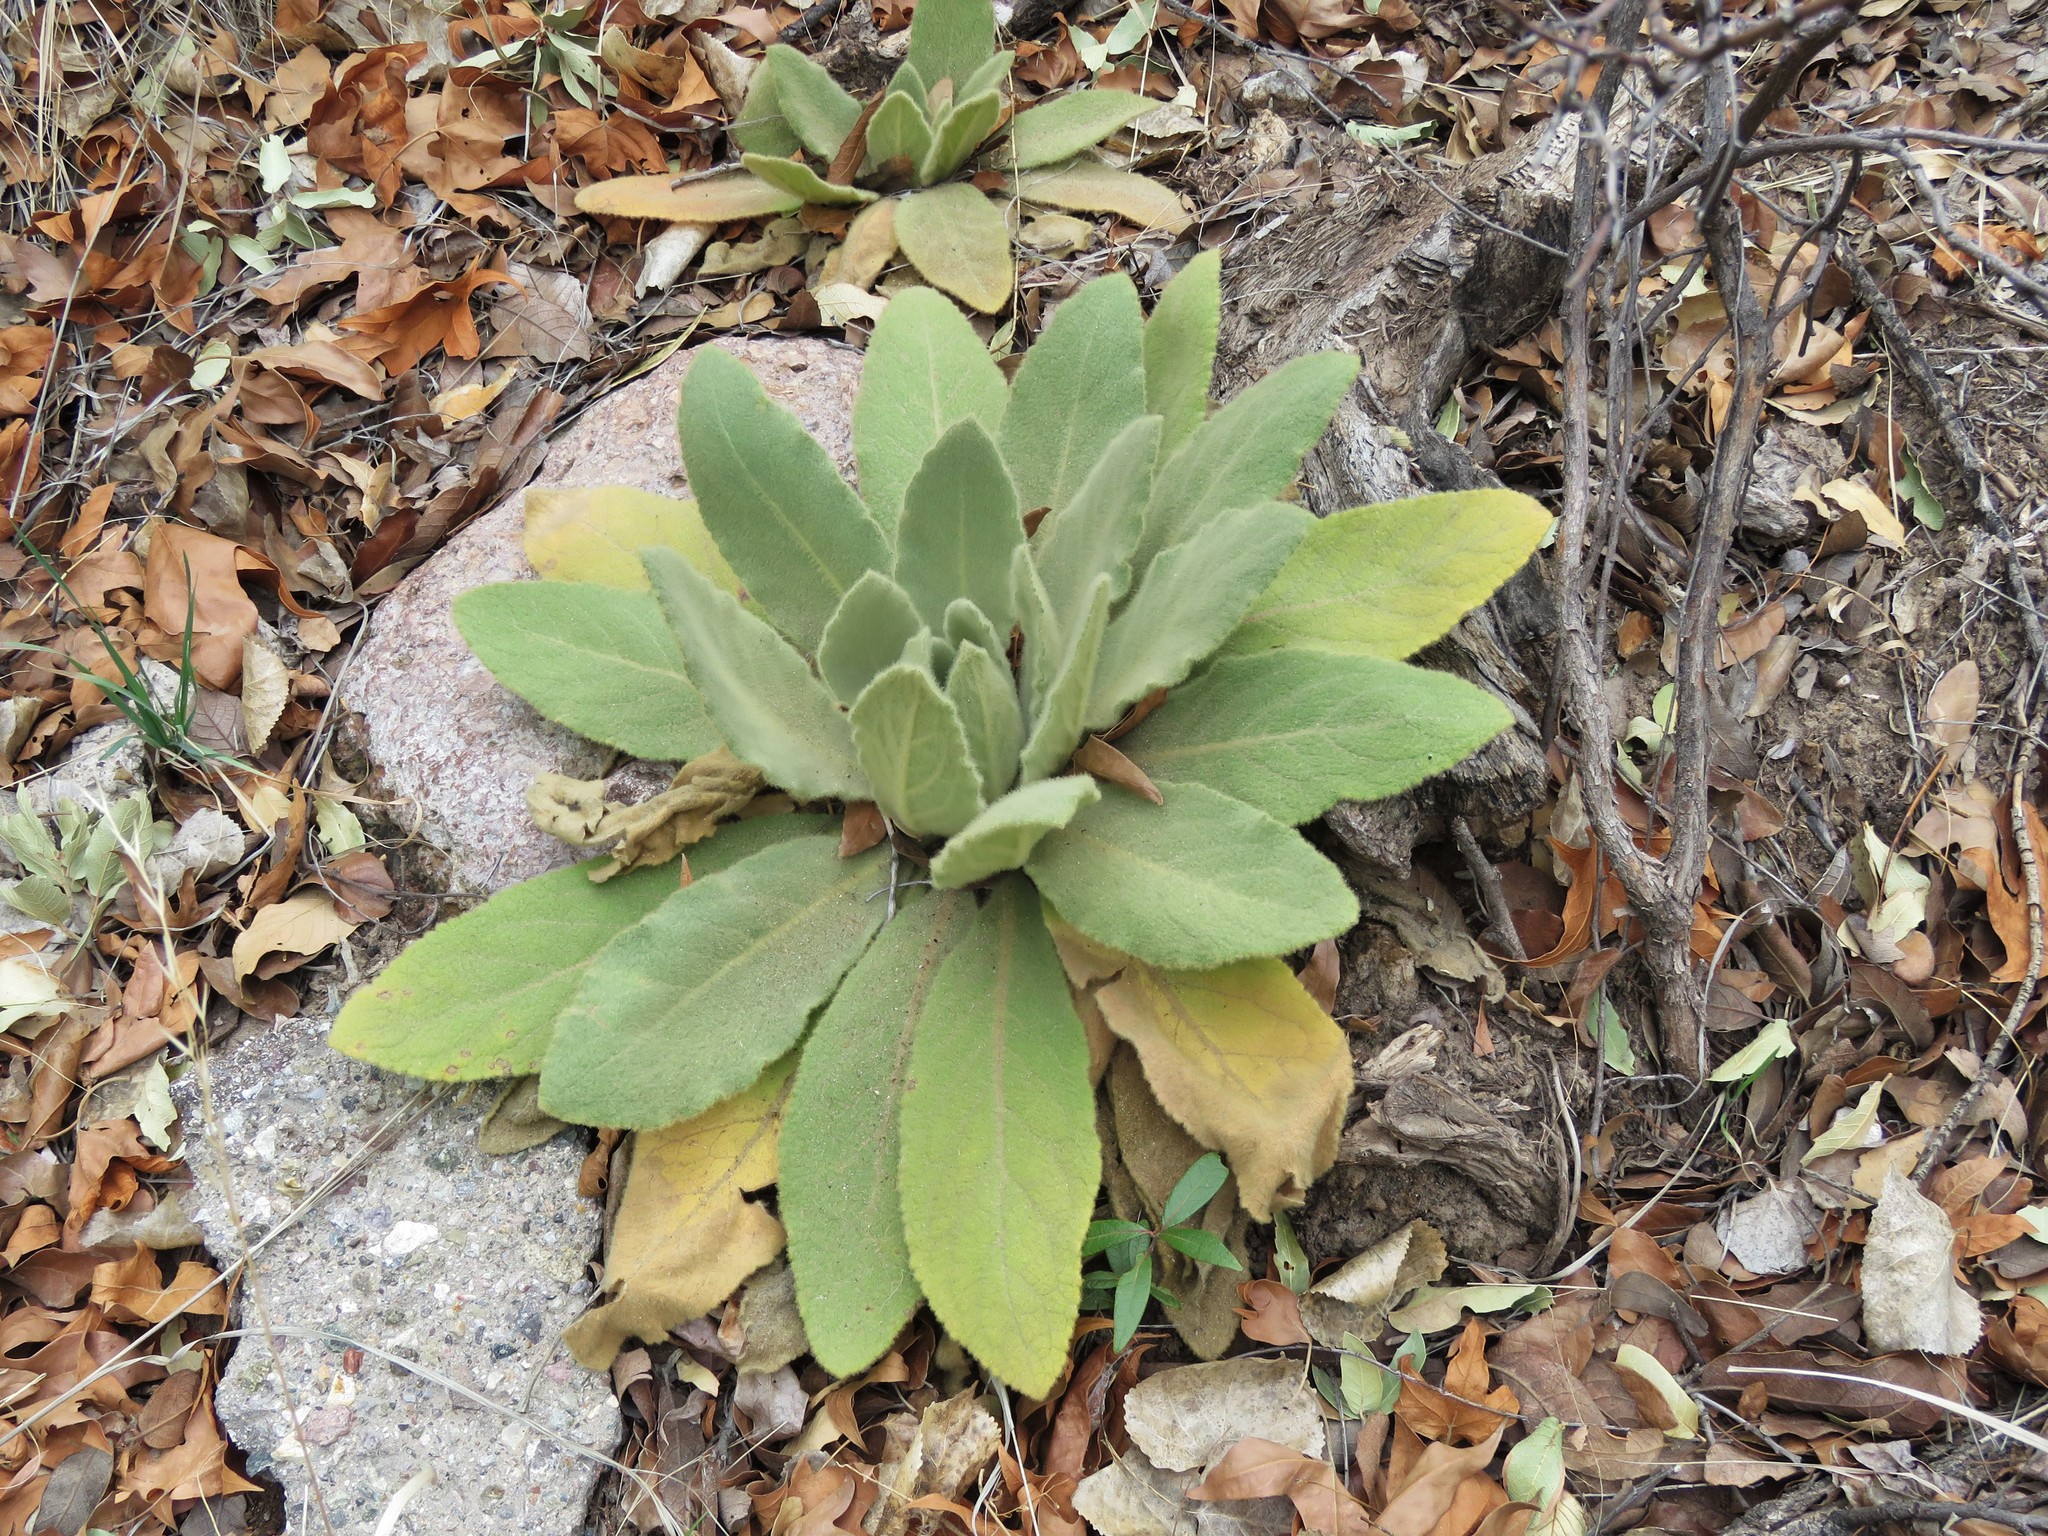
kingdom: Plantae
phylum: Tracheophyta
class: Magnoliopsida
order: Lamiales
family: Scrophulariaceae
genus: Verbascum
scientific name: Verbascum thapsus
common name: Common mullein
